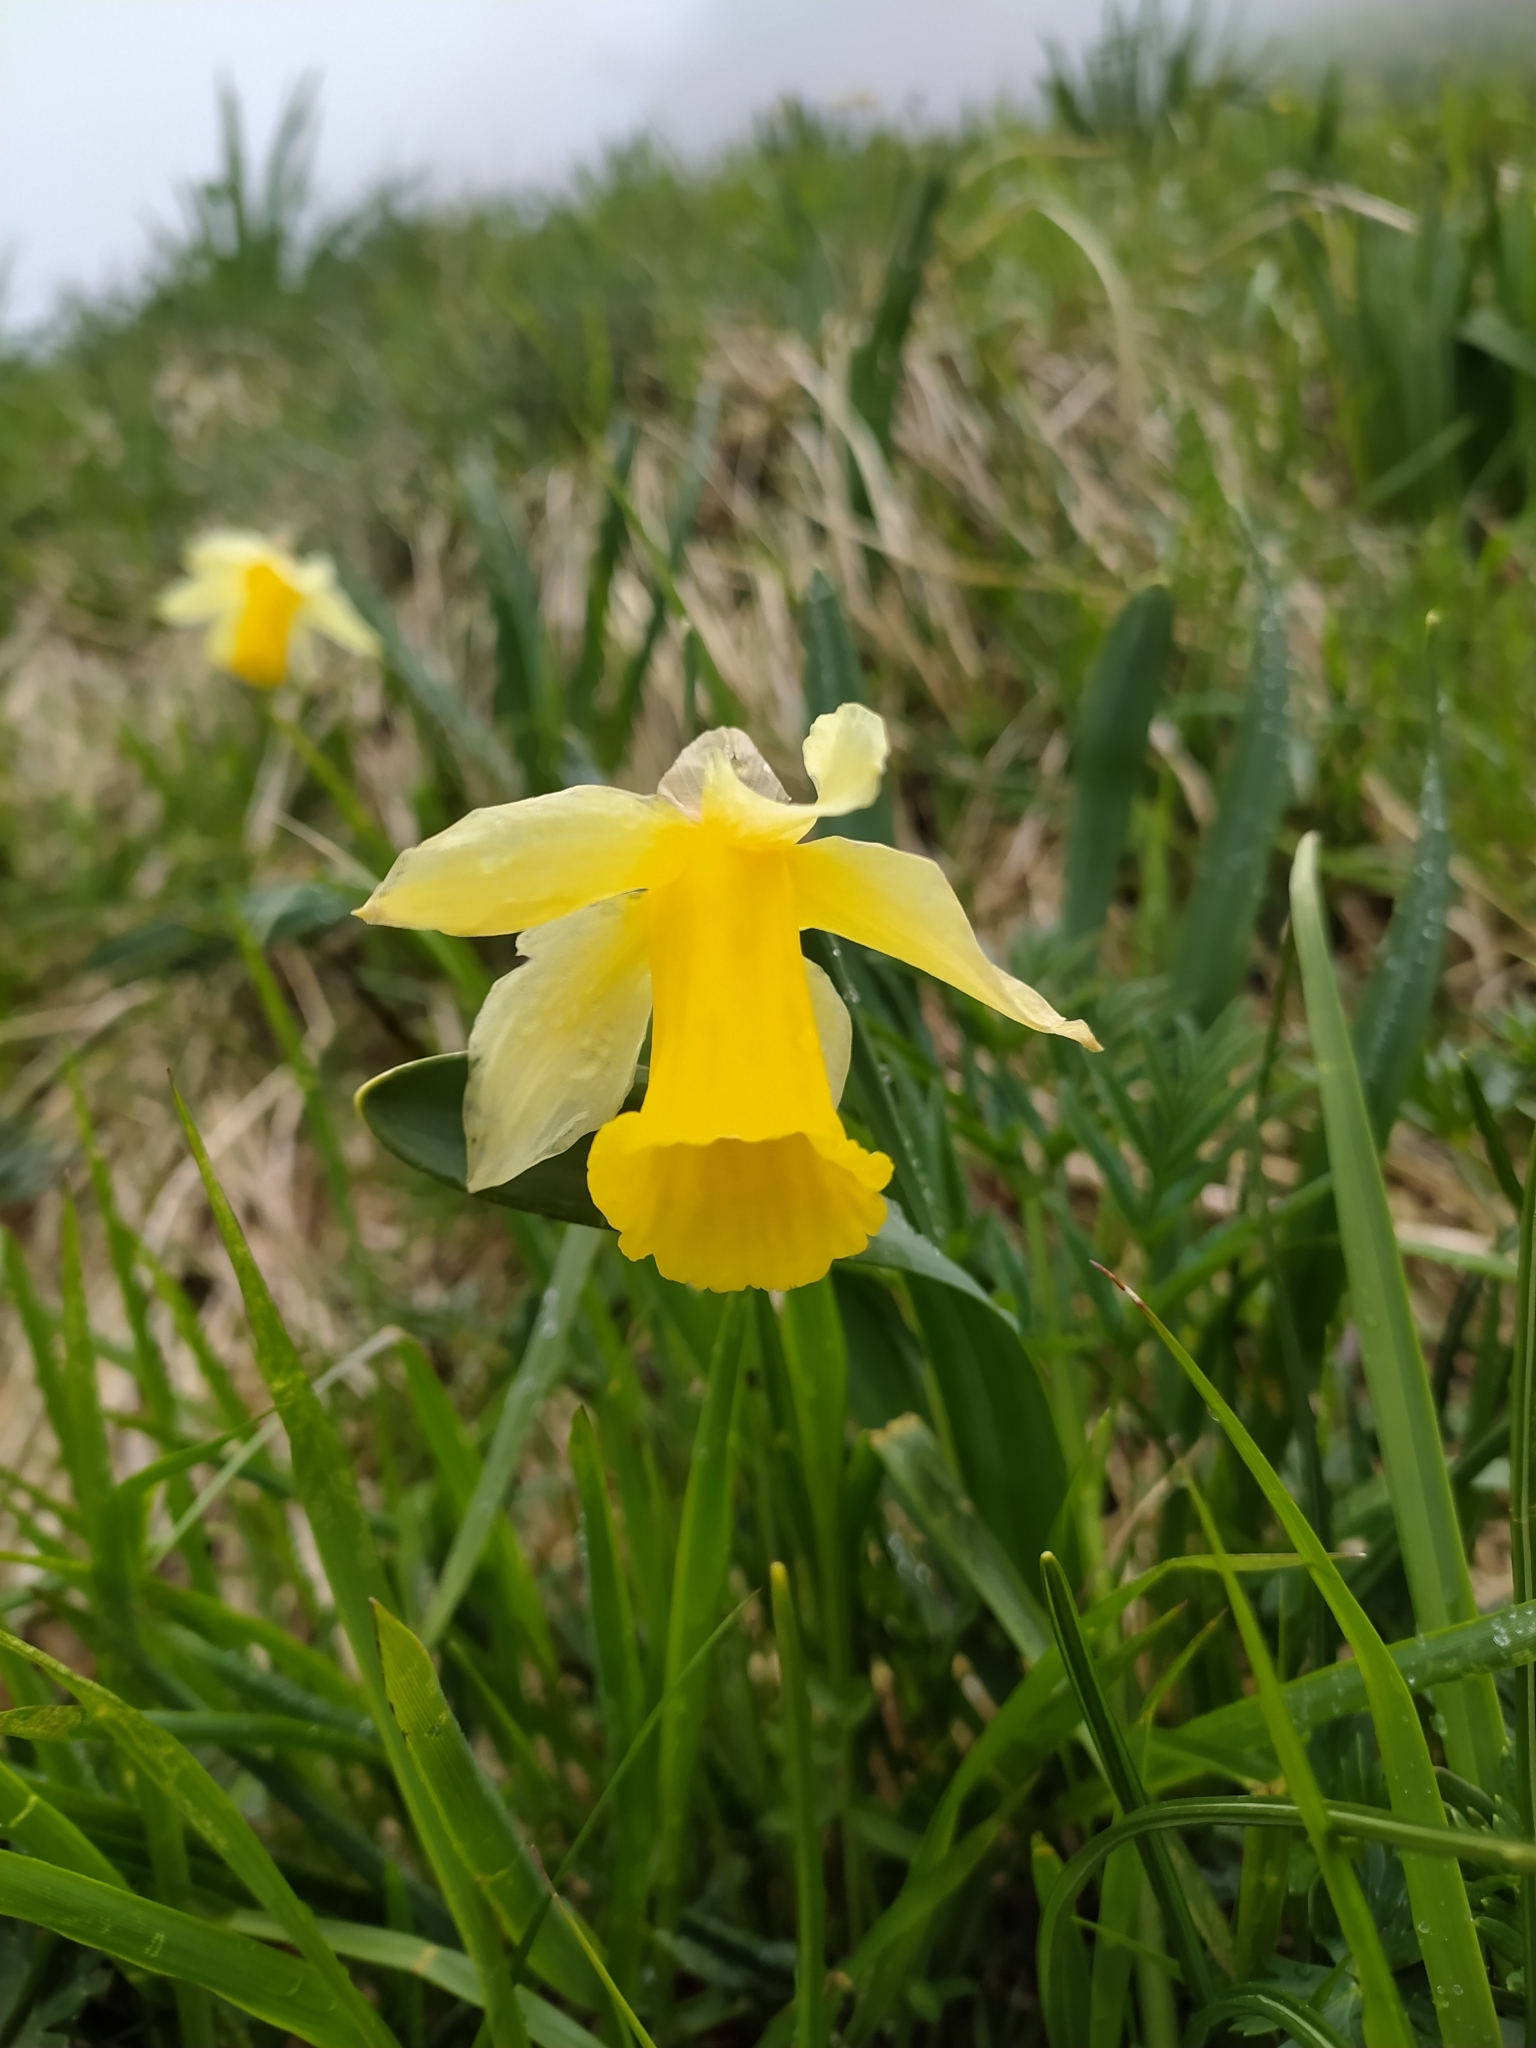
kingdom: Plantae
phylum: Tracheophyta
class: Liliopsida
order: Asparagales
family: Amaryllidaceae
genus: Narcissus
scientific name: Narcissus pseudonarcissus
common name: Daffodil
